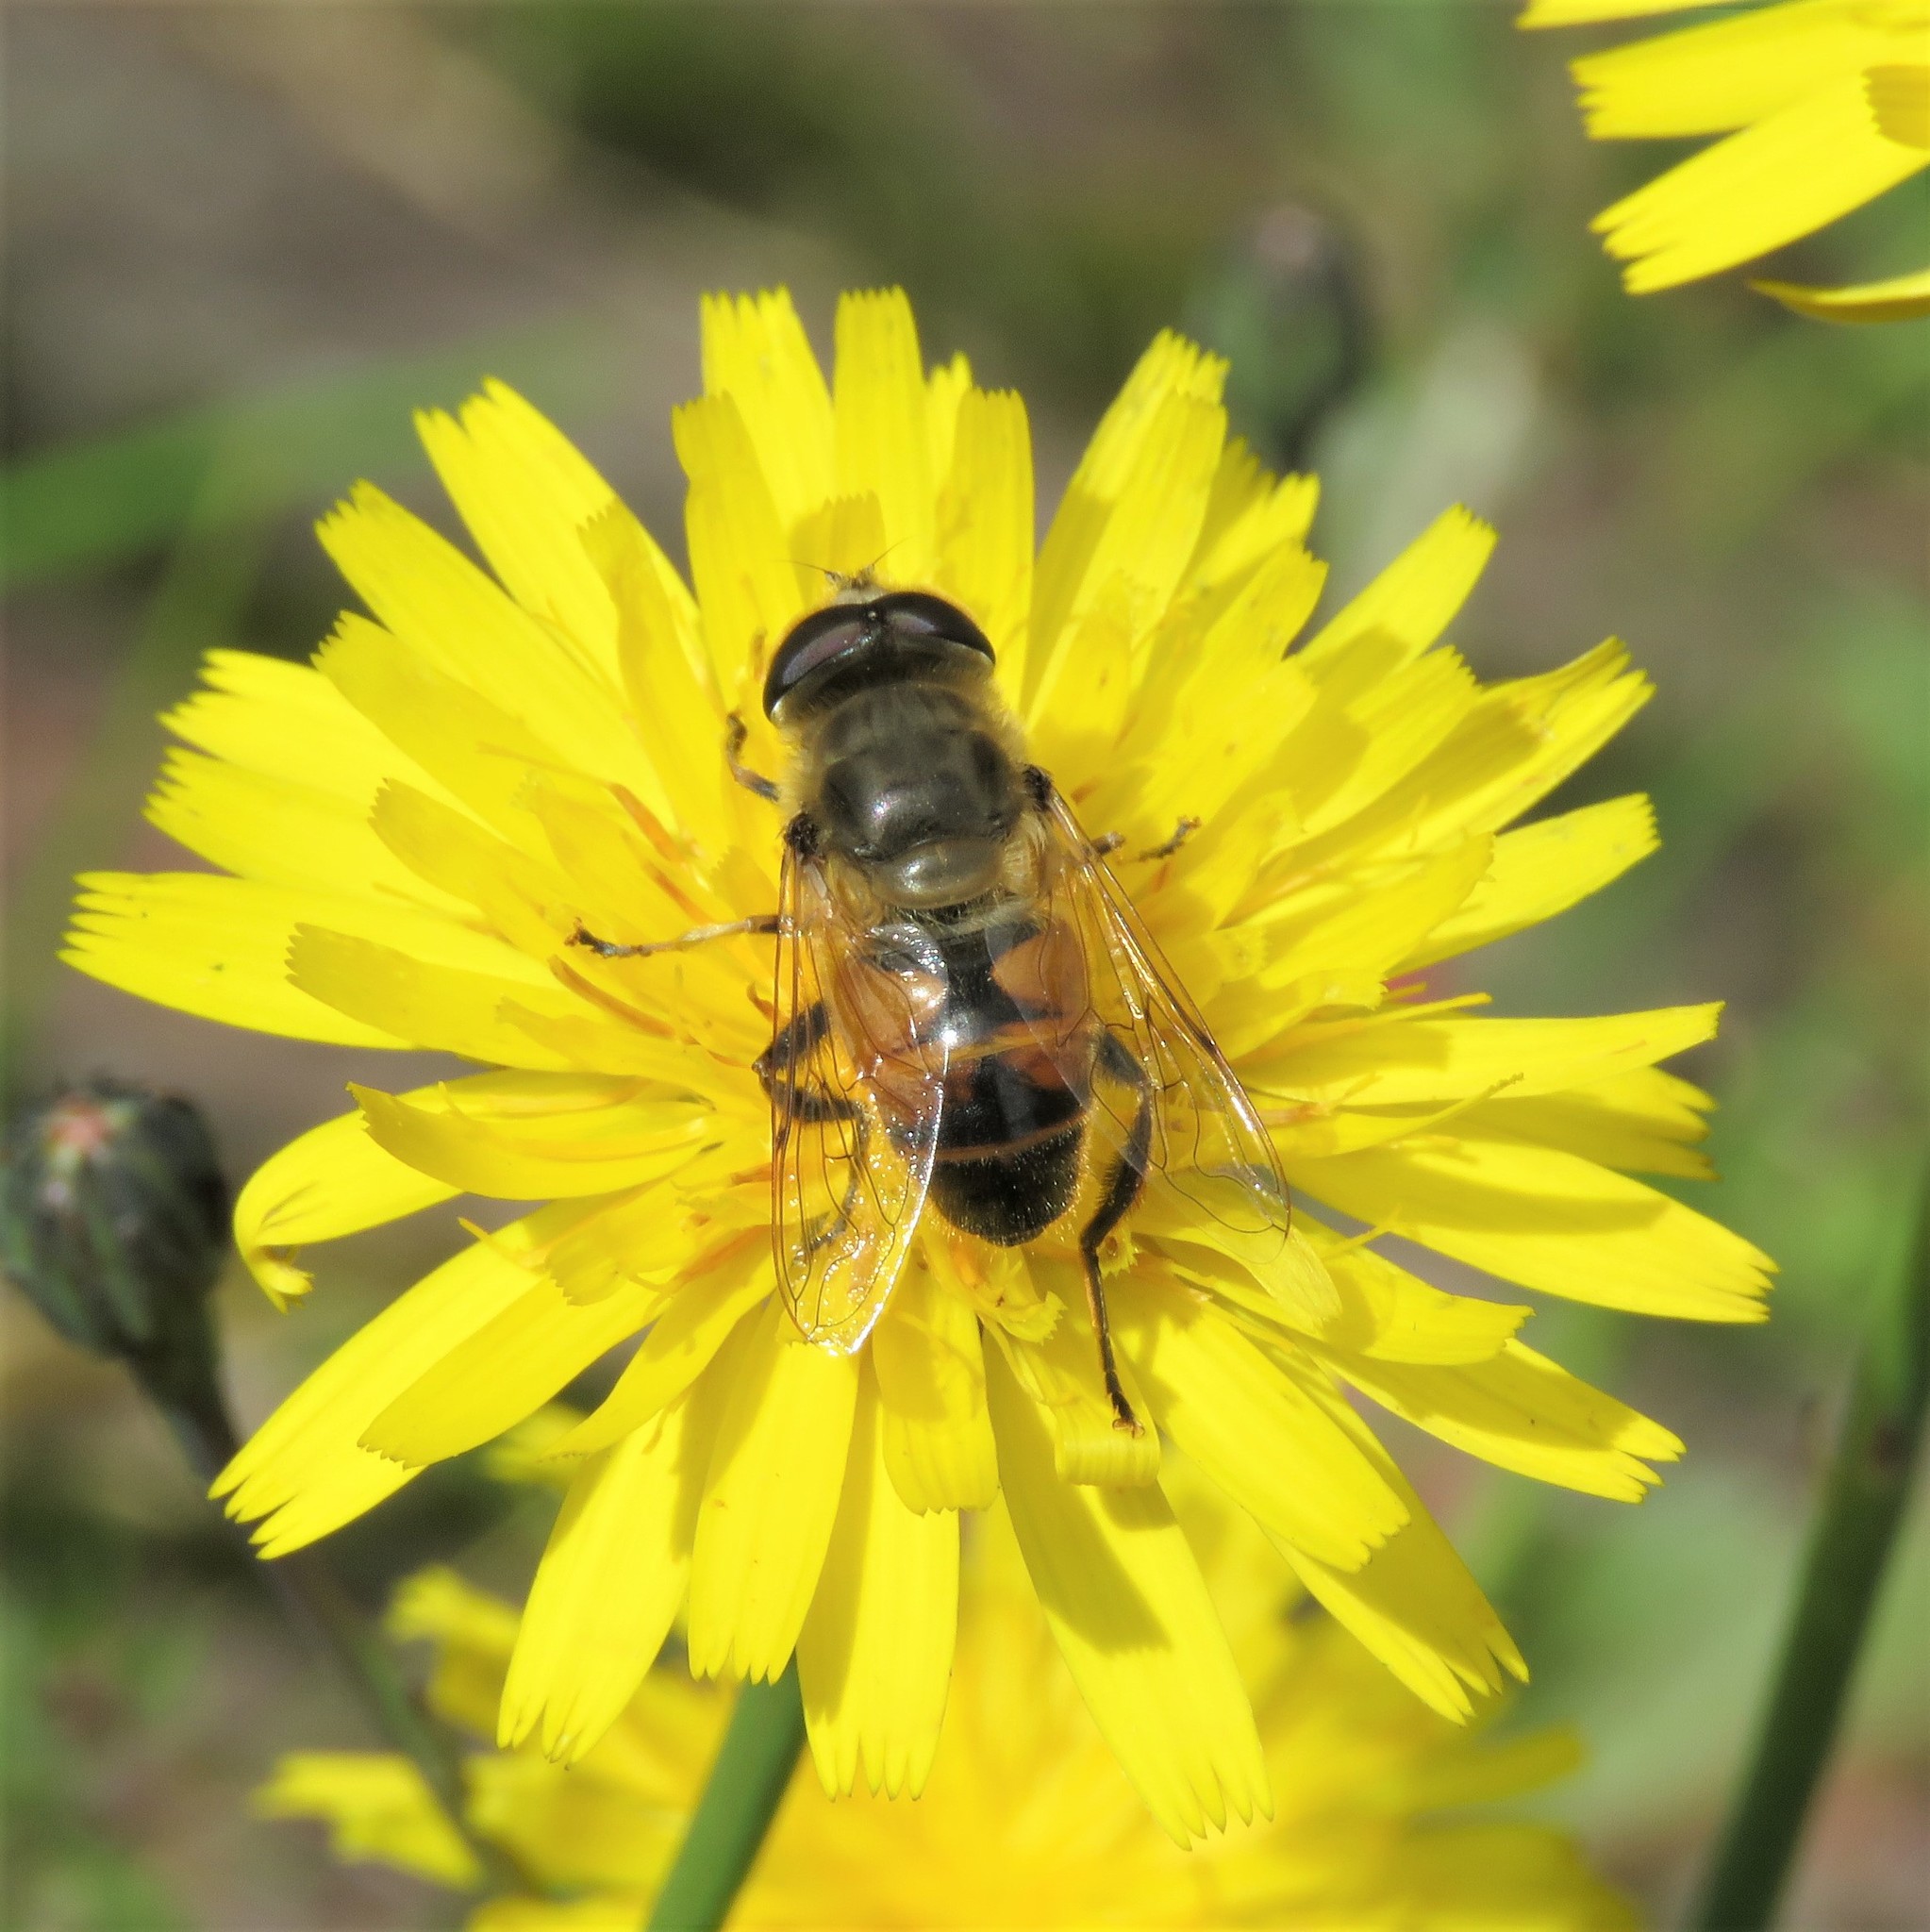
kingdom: Plantae
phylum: Tracheophyta
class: Magnoliopsida
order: Asterales
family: Asteraceae
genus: Hypochaeris
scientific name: Hypochaeris radicata
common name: Flatweed
